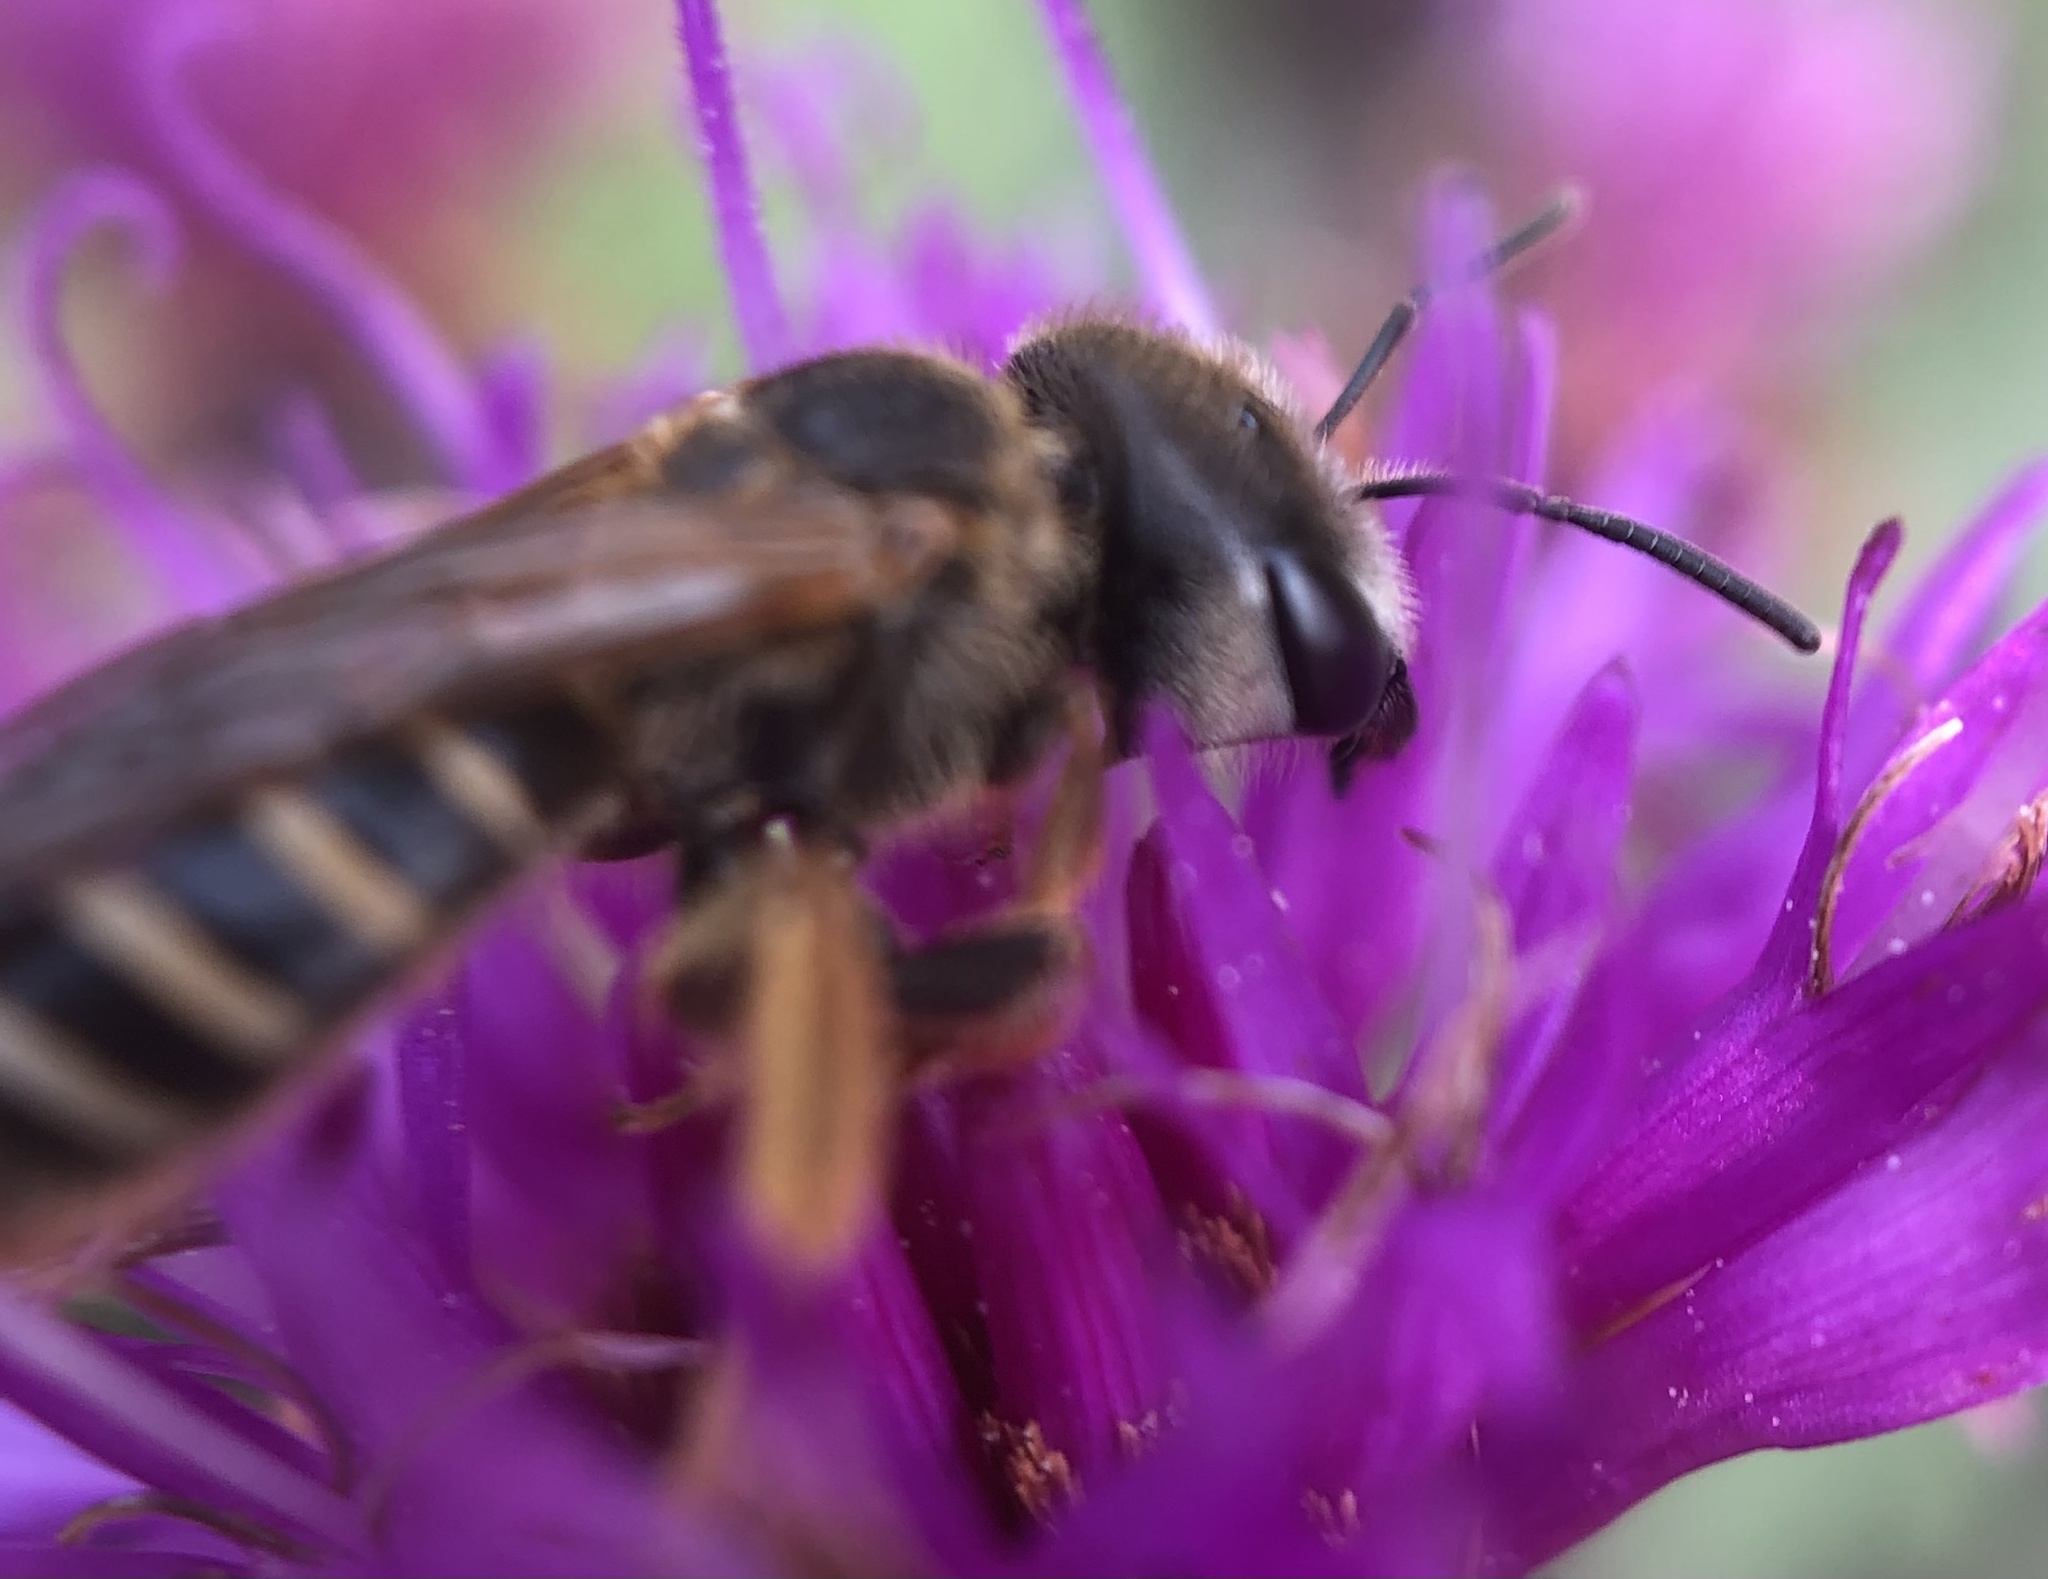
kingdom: Animalia
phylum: Arthropoda
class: Insecta
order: Hymenoptera
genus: Odontalictus
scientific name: Odontalictus
